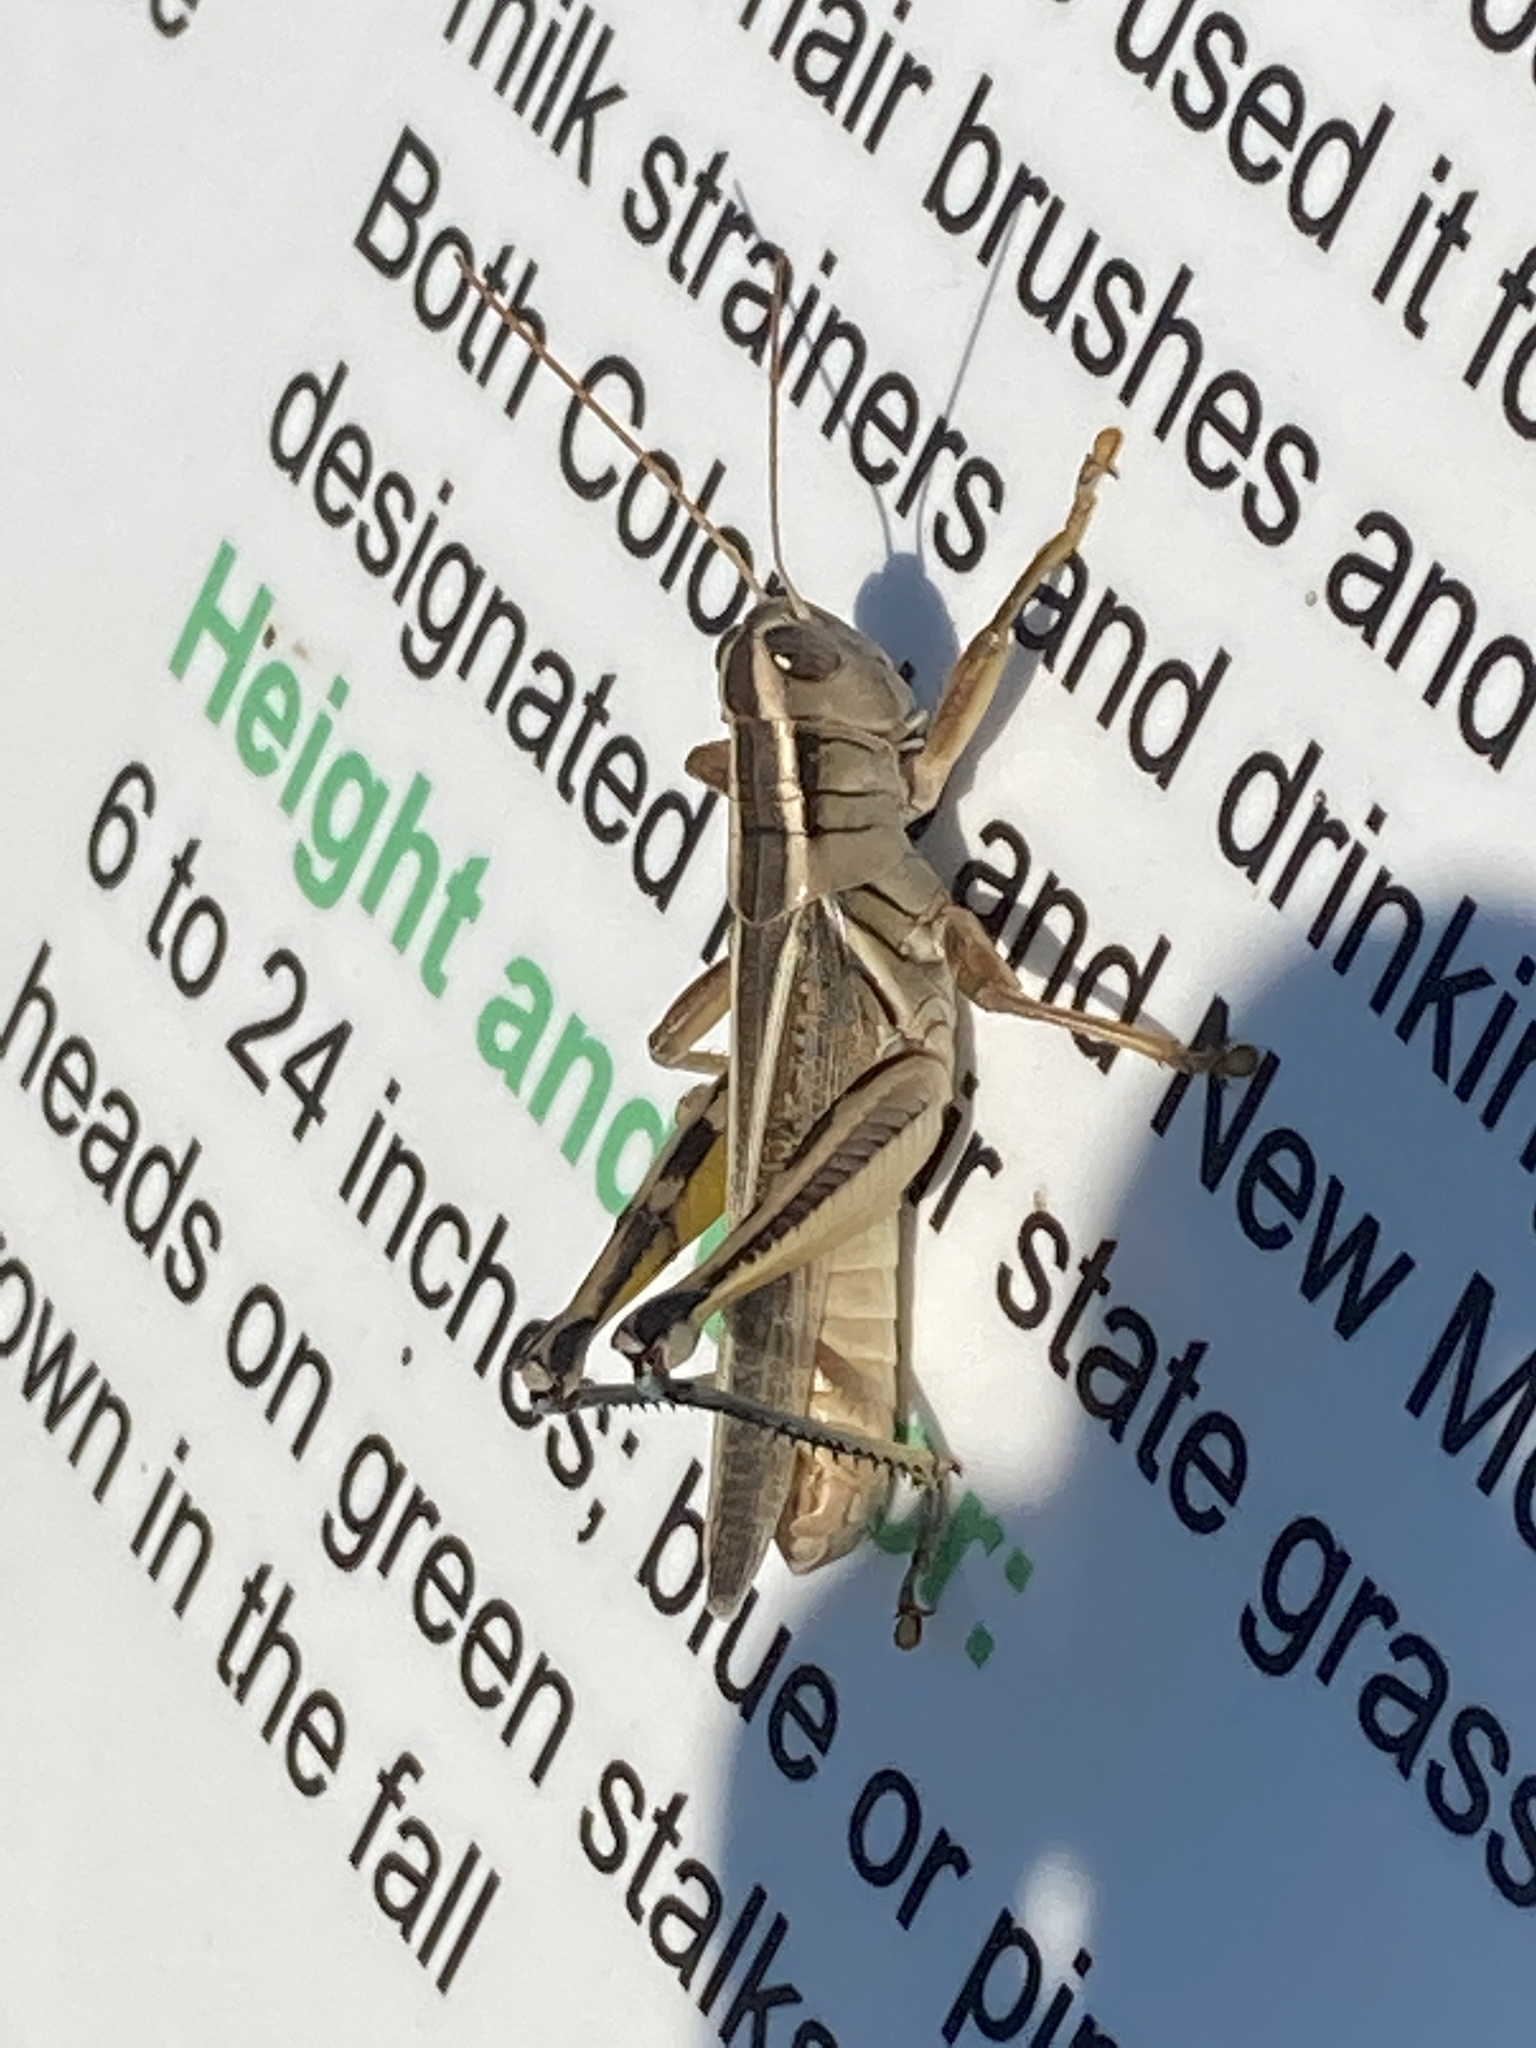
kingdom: Animalia
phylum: Arthropoda
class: Insecta
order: Orthoptera
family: Acrididae
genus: Melanoplus
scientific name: Melanoplus bivittatus
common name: Two-striped grasshopper
